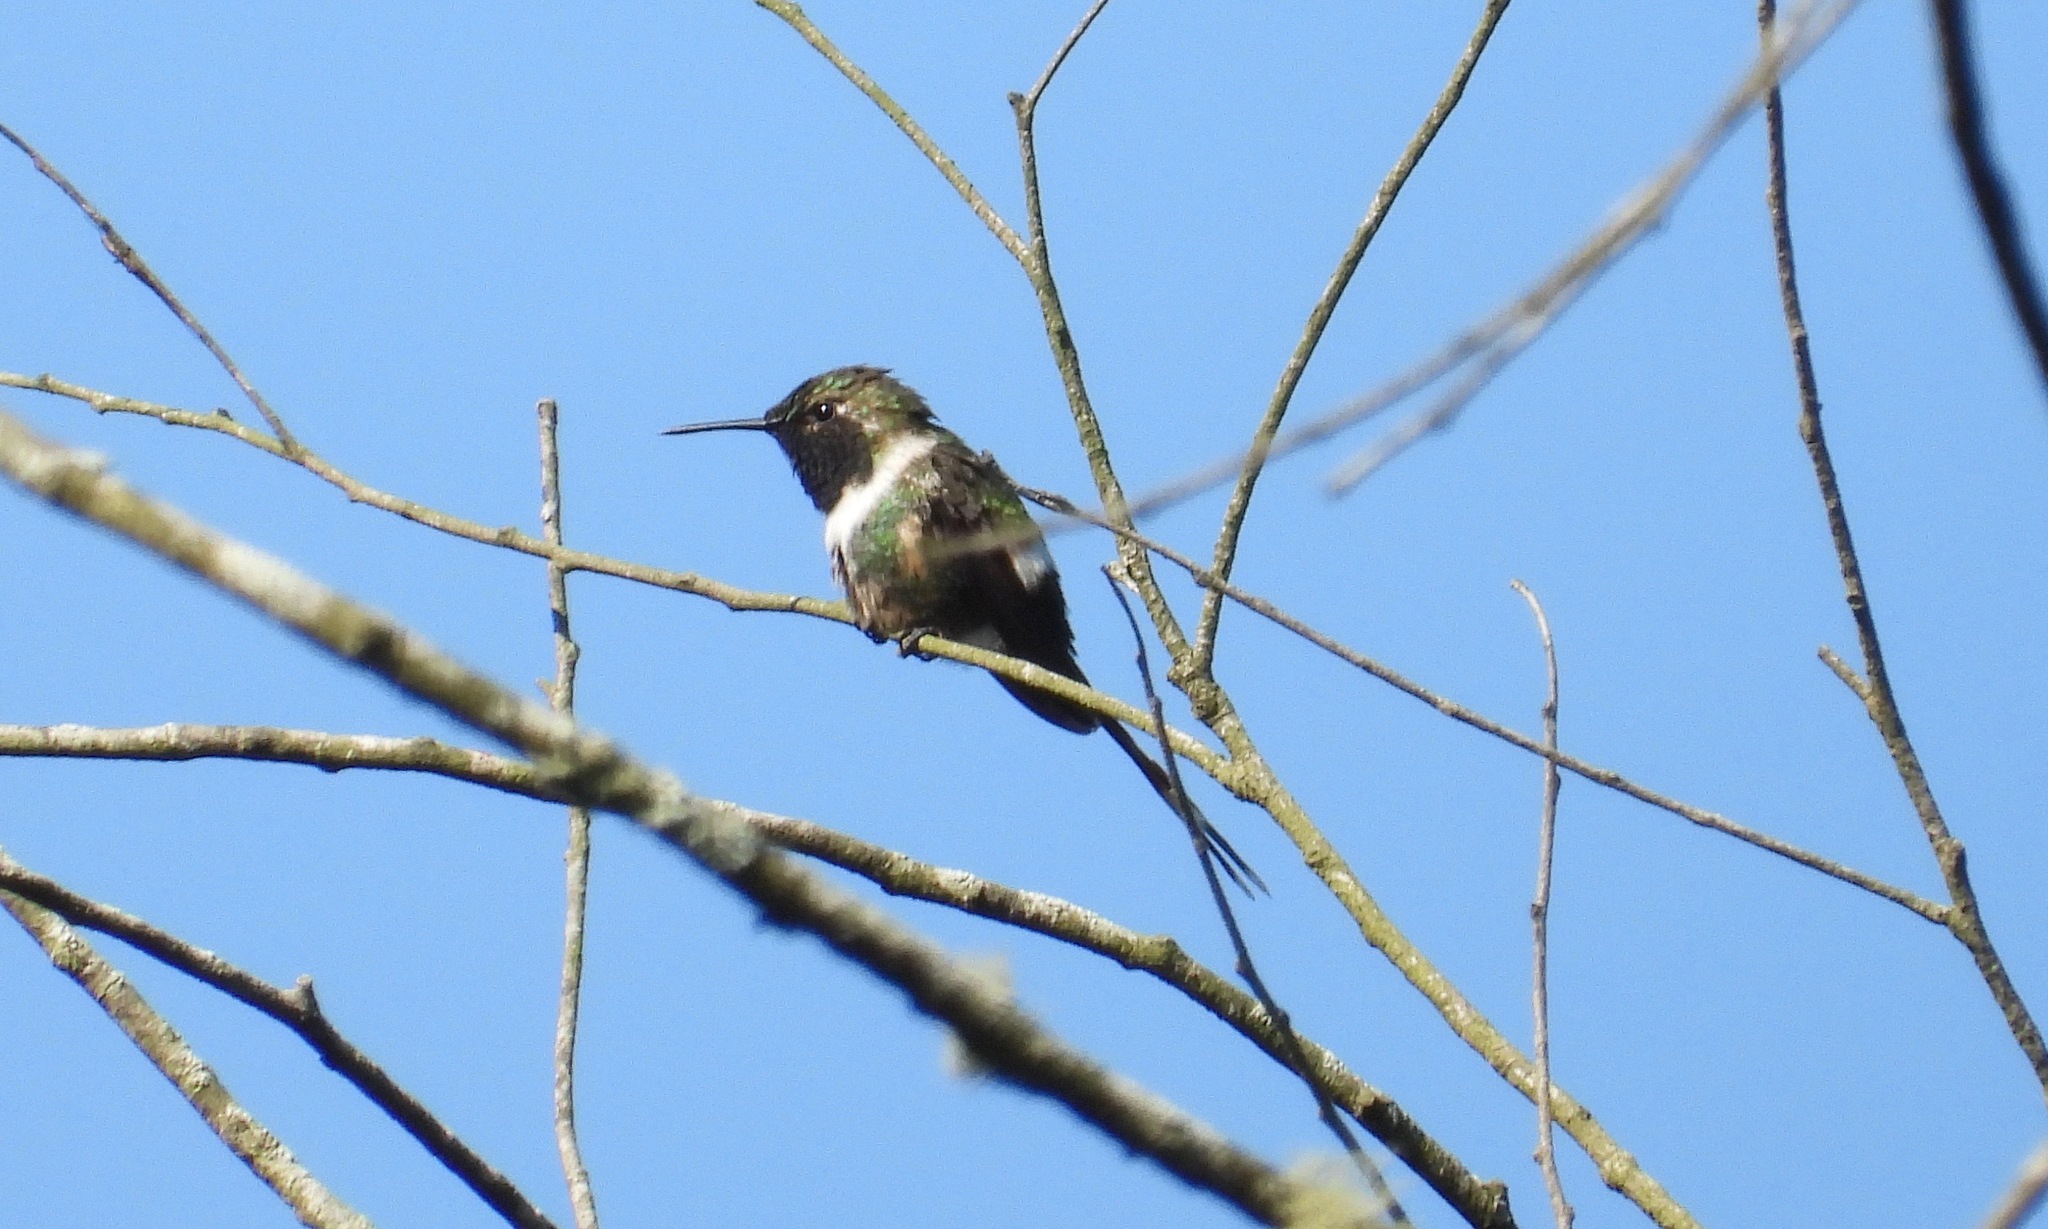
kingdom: Animalia
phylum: Chordata
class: Aves
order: Apodiformes
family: Trochilidae
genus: Tilmatura
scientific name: Tilmatura dupontii
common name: Sparkling-tailed woodstar
